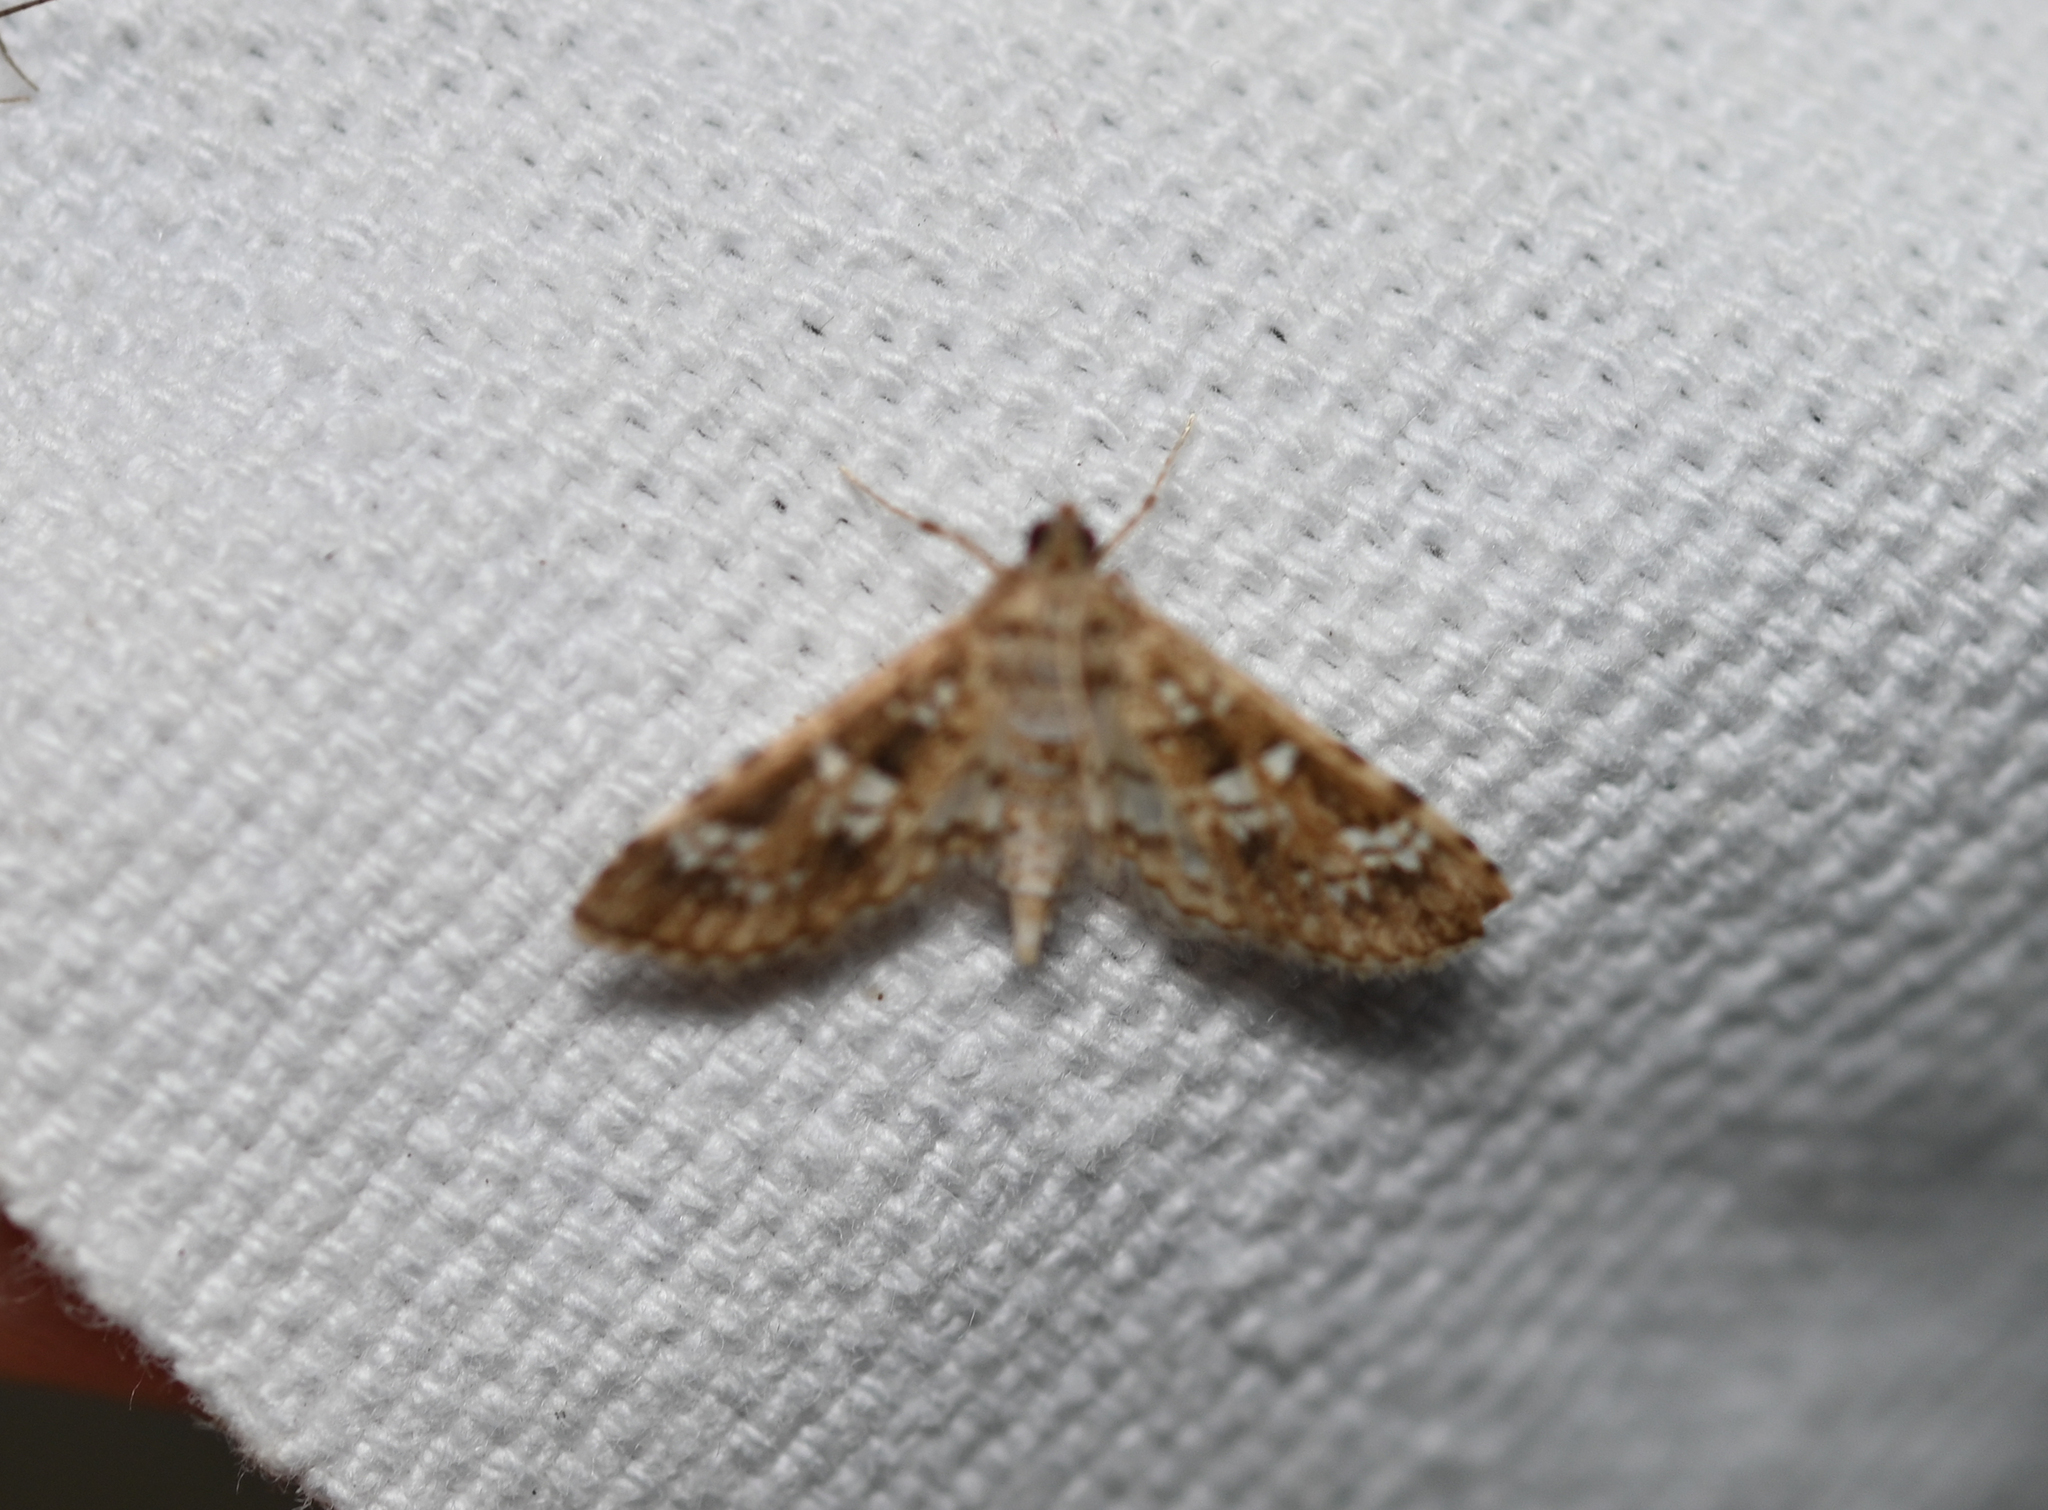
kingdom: Animalia
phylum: Arthropoda
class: Insecta
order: Lepidoptera
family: Crambidae
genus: Samea
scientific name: Samea multiplicalis
